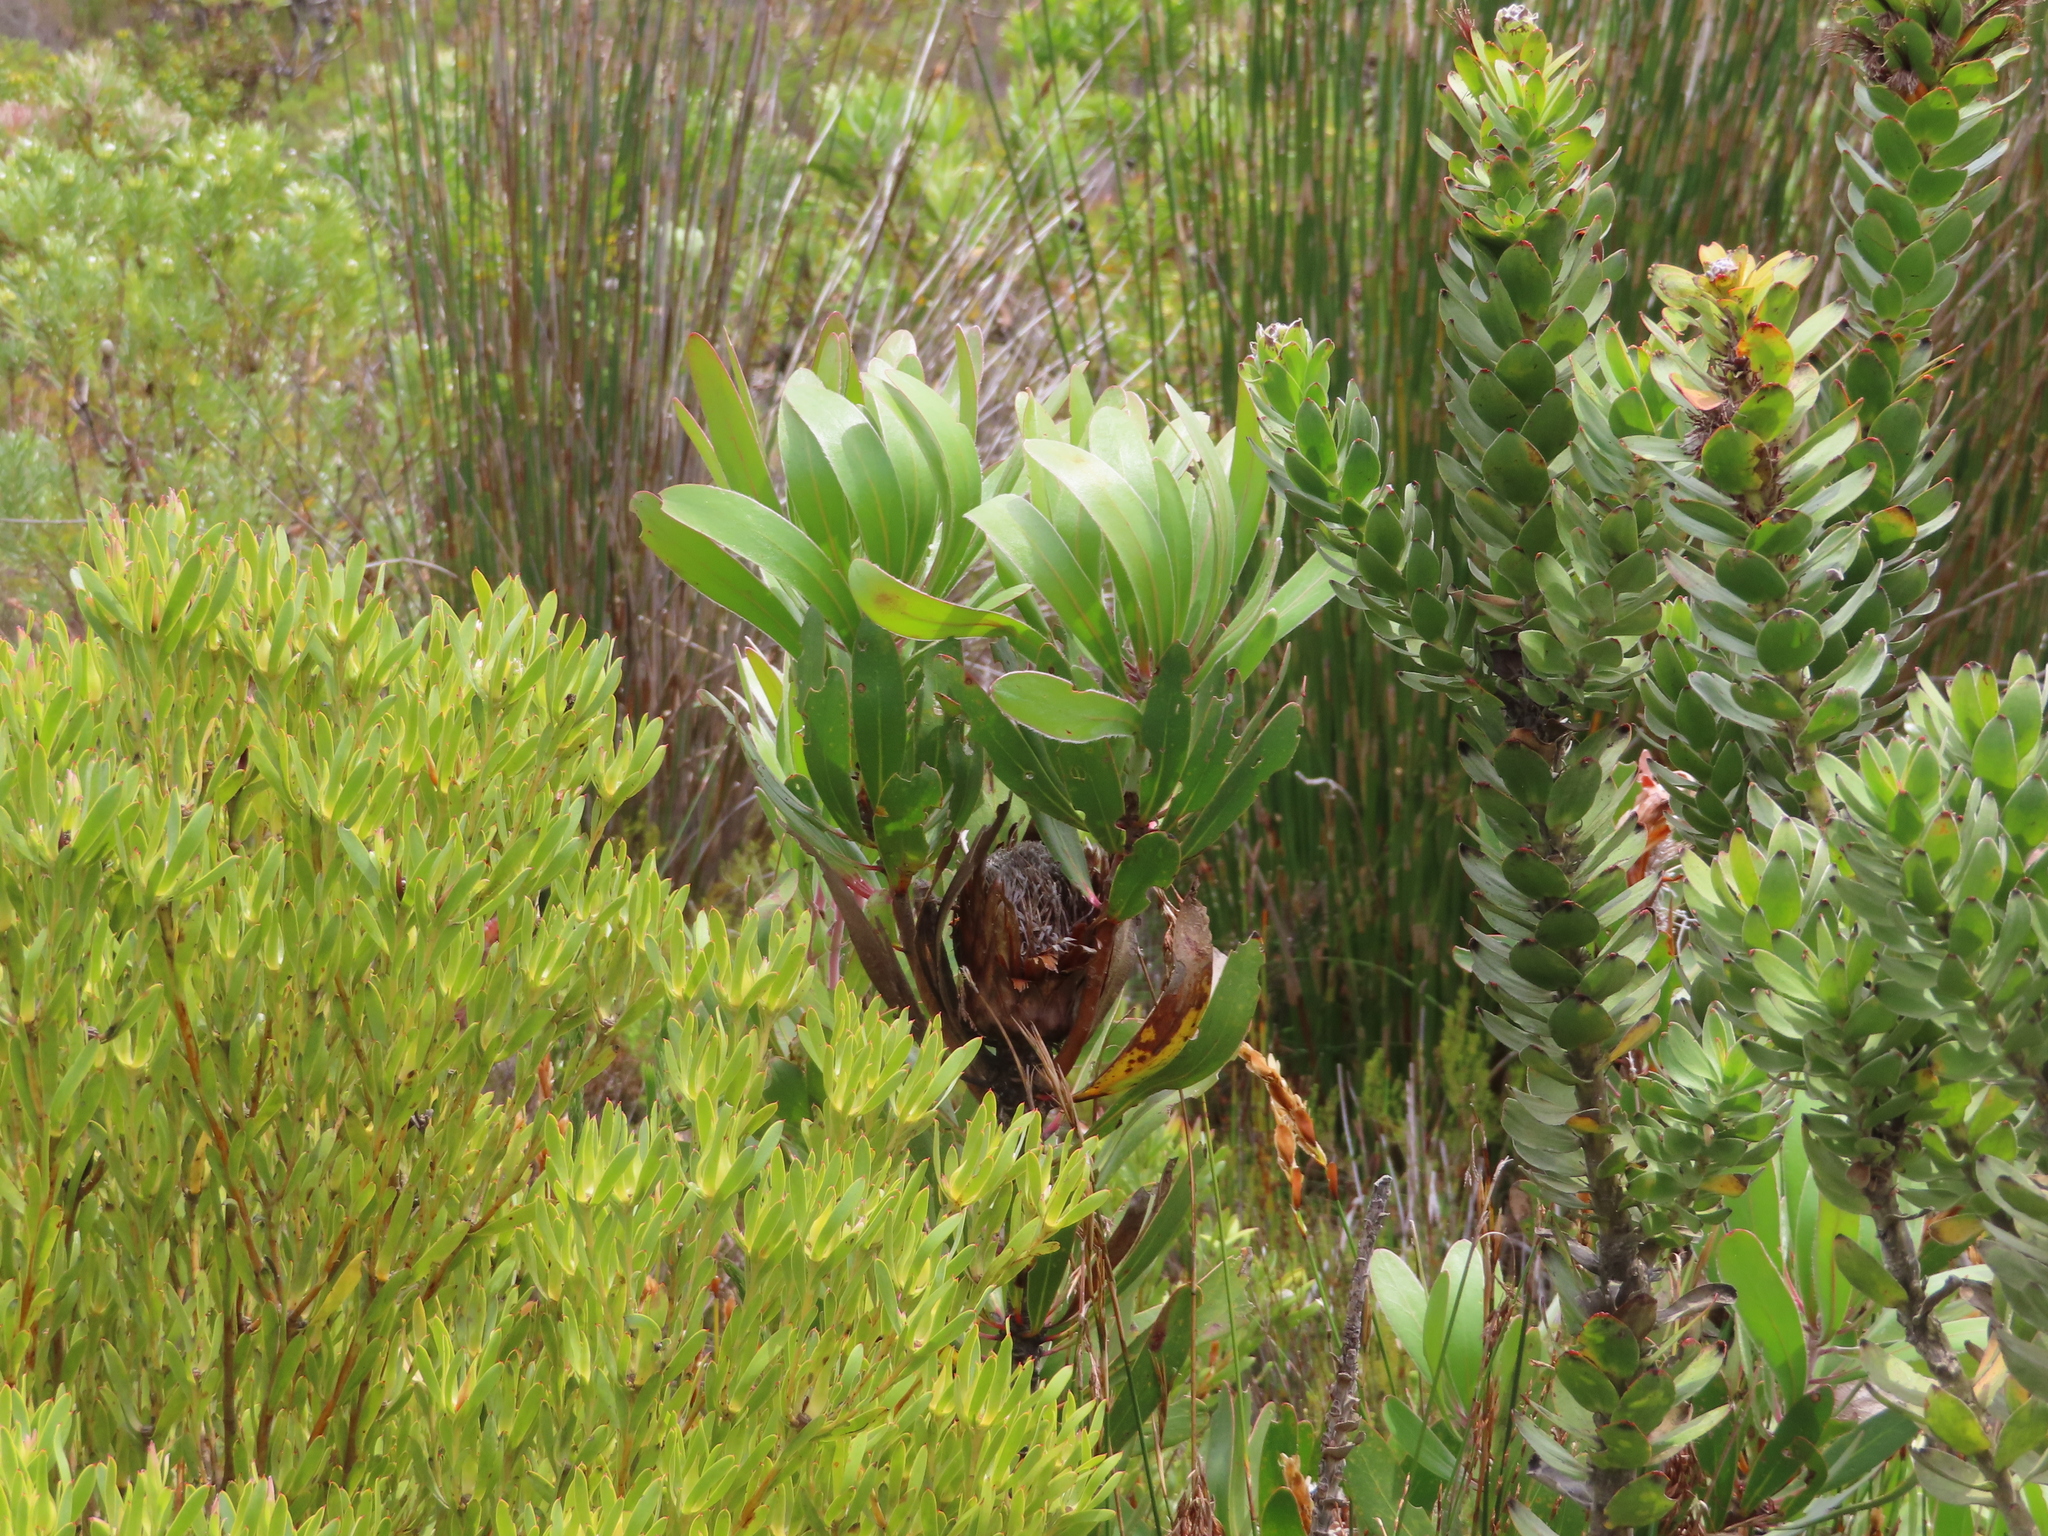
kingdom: Plantae
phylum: Tracheophyta
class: Magnoliopsida
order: Proteales
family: Proteaceae
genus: Protea
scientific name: Protea obtusifolia
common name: Bredasdorp sugarbush
